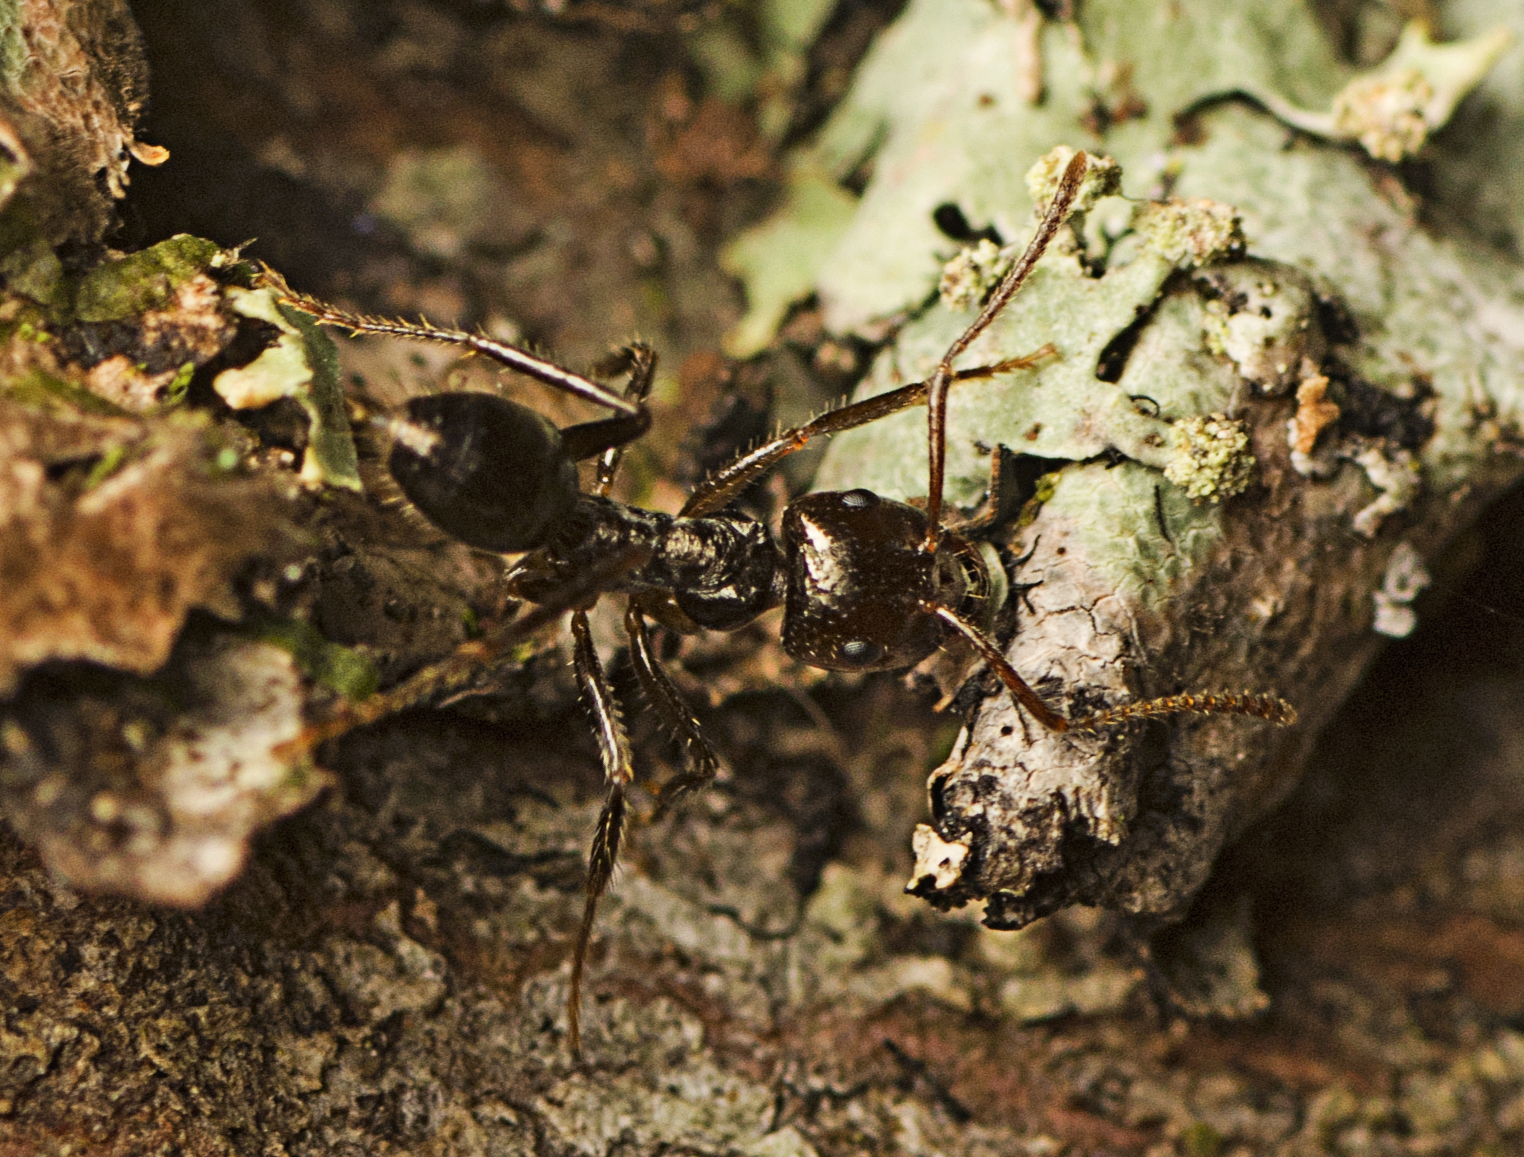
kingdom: Animalia
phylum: Arthropoda
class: Insecta
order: Hymenoptera
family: Formicidae
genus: Notoncus
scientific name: Notoncus capitatus
